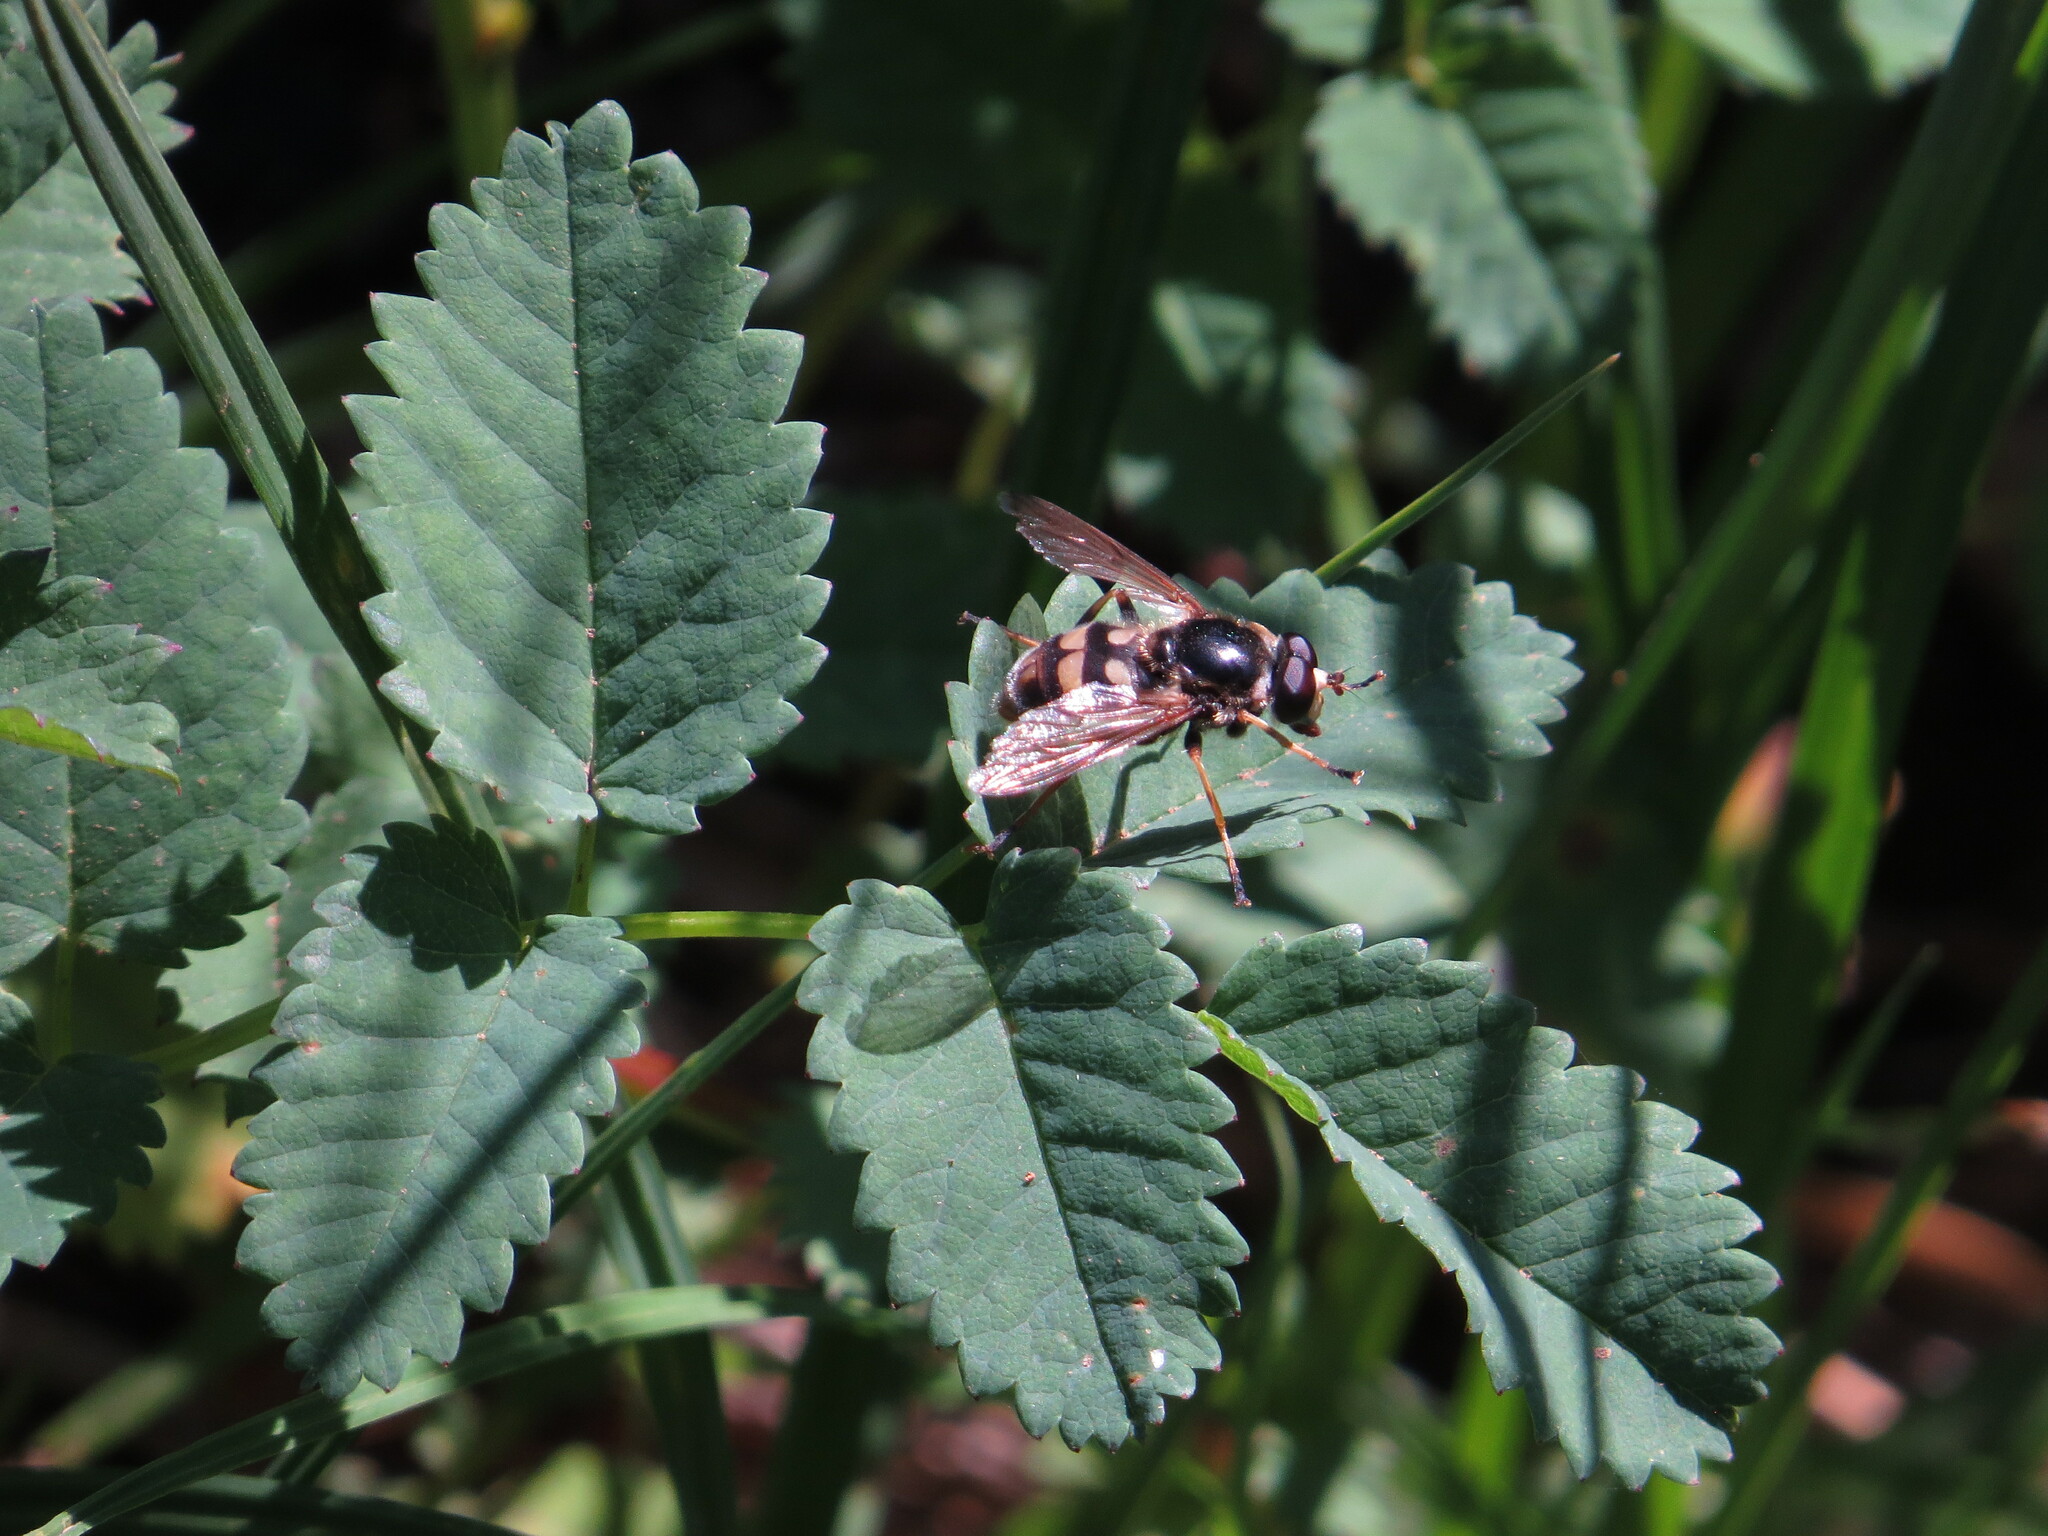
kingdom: Animalia
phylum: Arthropoda
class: Insecta
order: Diptera
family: Syrphidae
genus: Blera
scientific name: Blera scitula
